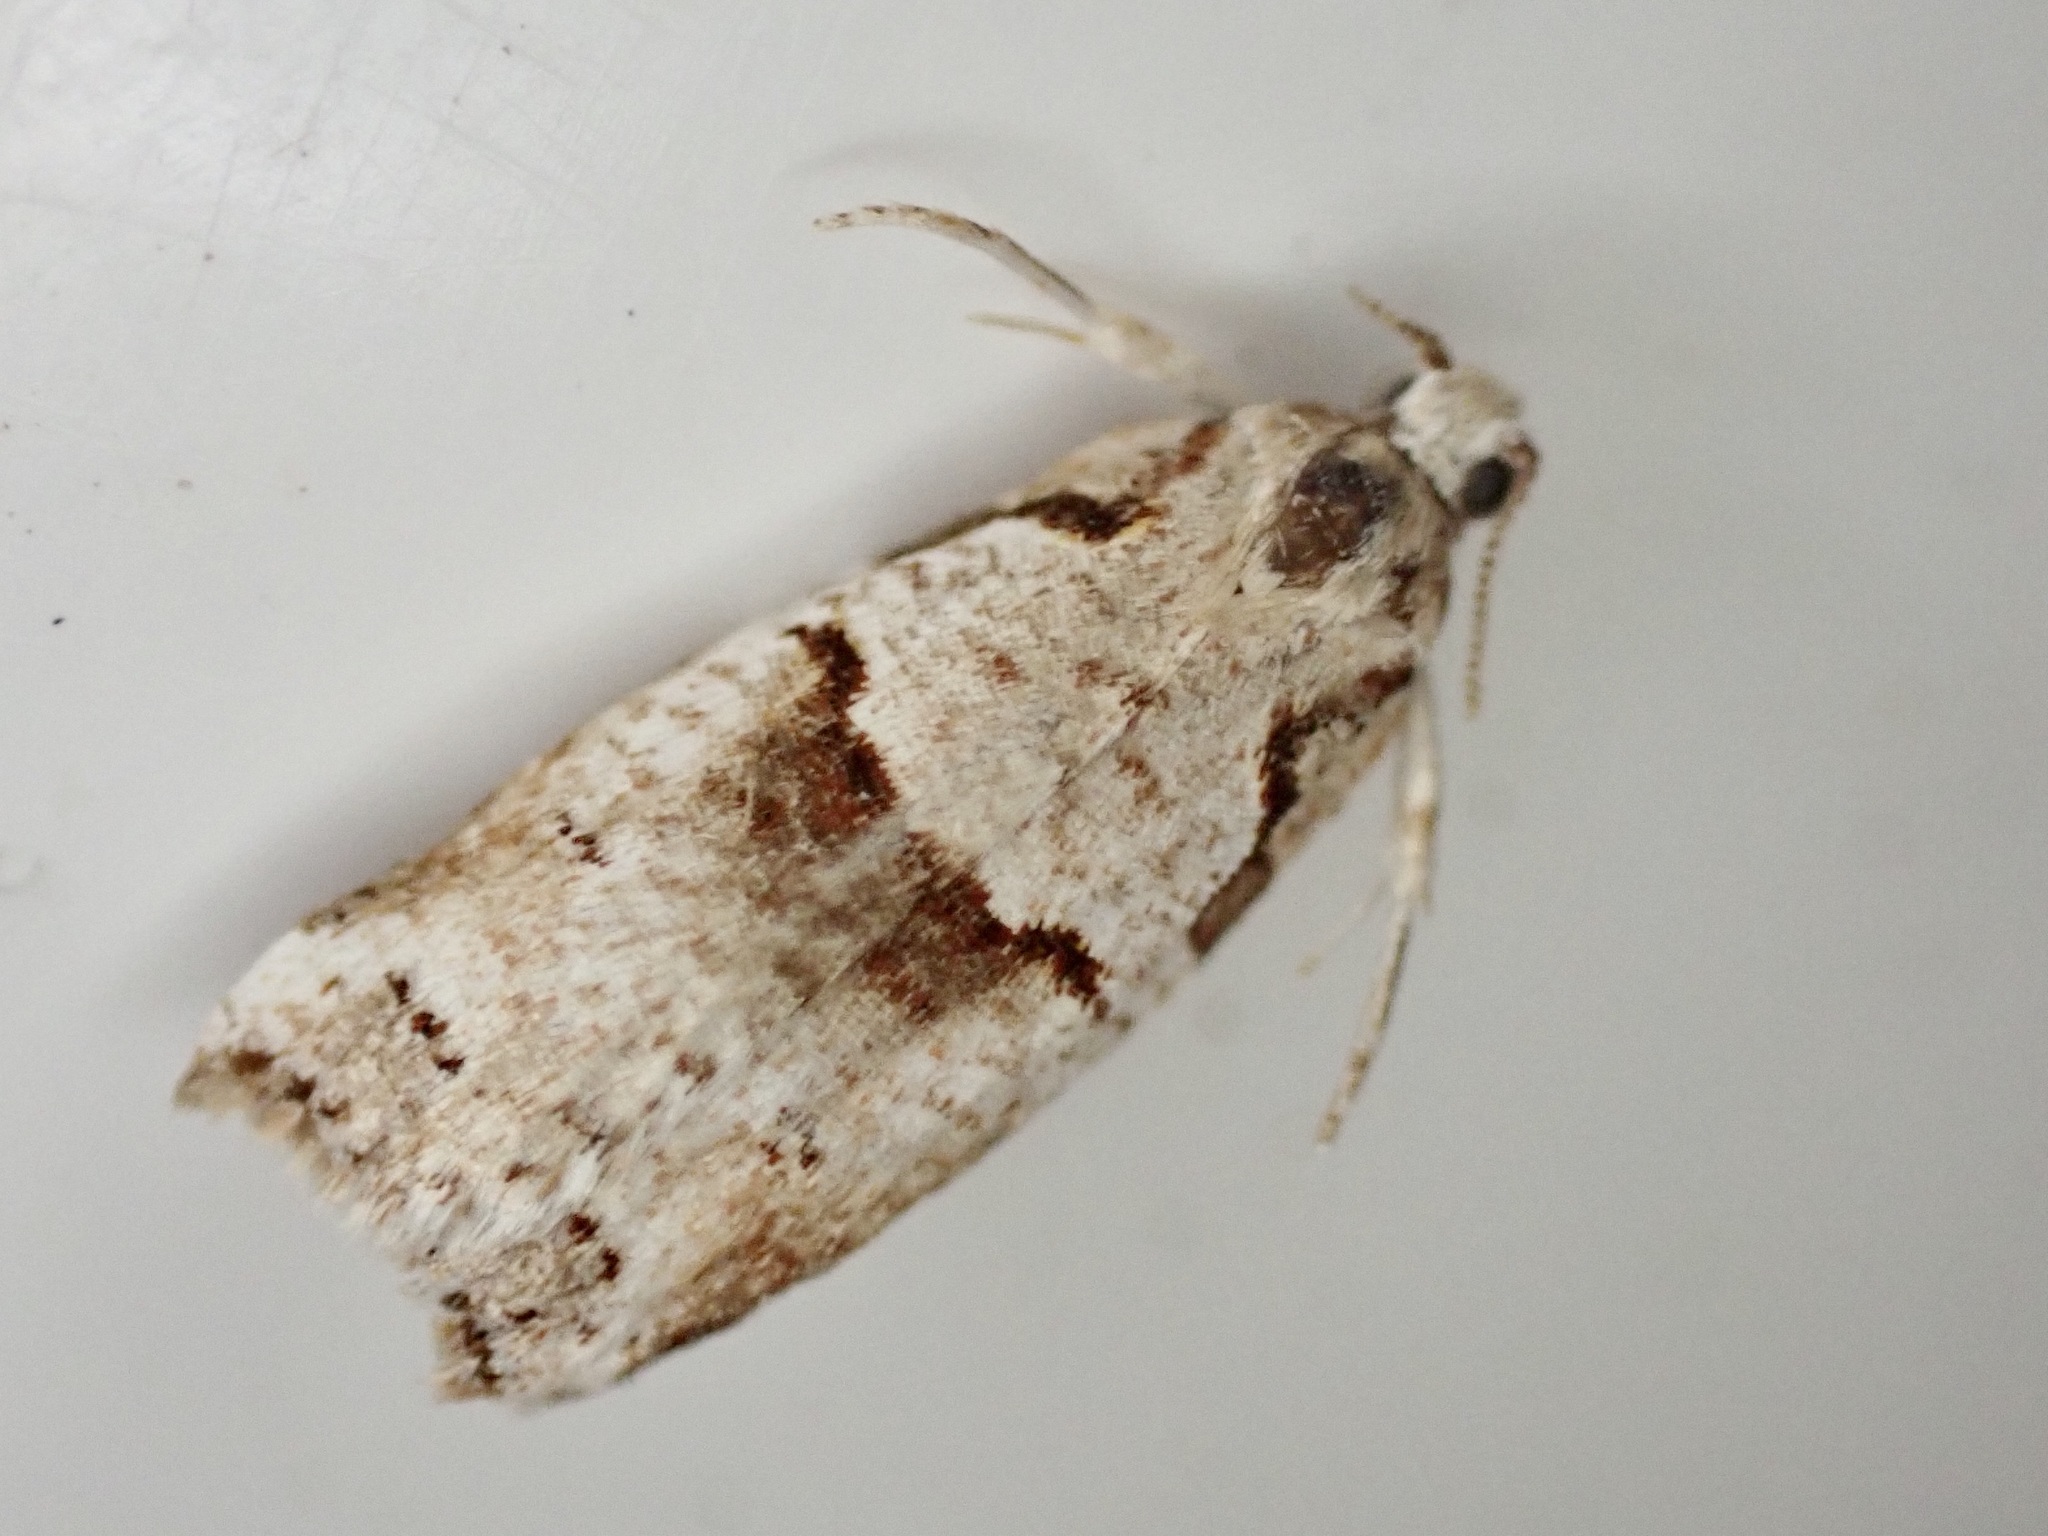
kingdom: Animalia
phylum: Arthropoda
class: Insecta
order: Lepidoptera
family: Tortricidae
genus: Harmologa
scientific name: Harmologa amplexana
